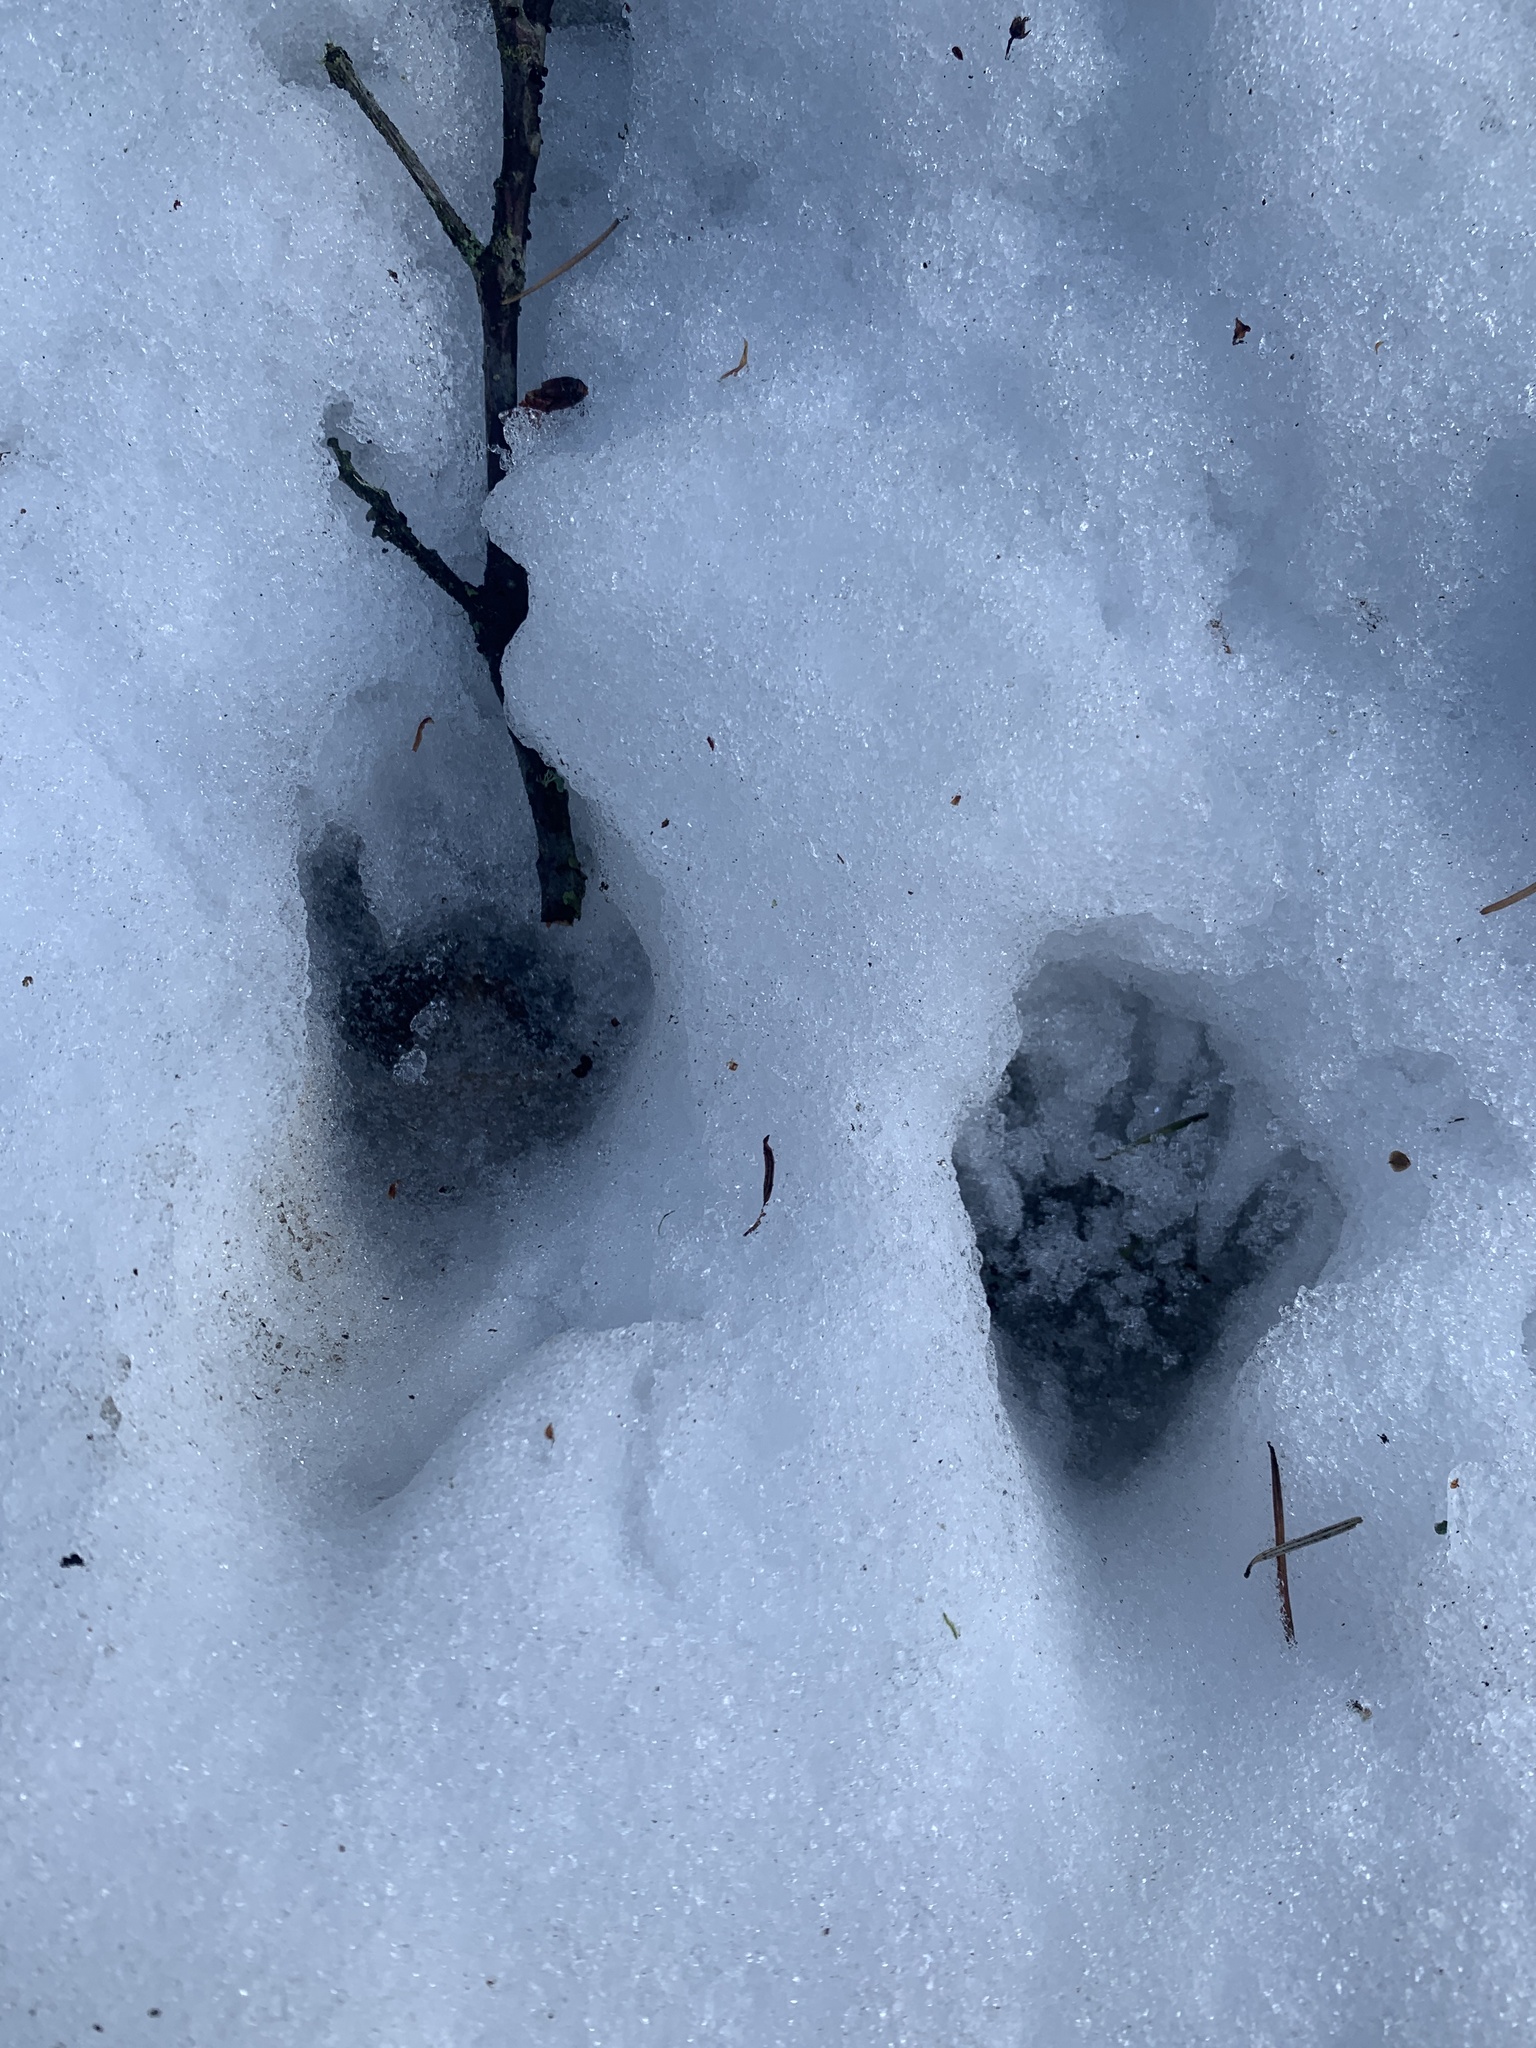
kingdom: Animalia
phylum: Chordata
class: Mammalia
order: Carnivora
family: Procyonidae
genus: Procyon
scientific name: Procyon lotor
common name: Raccoon
